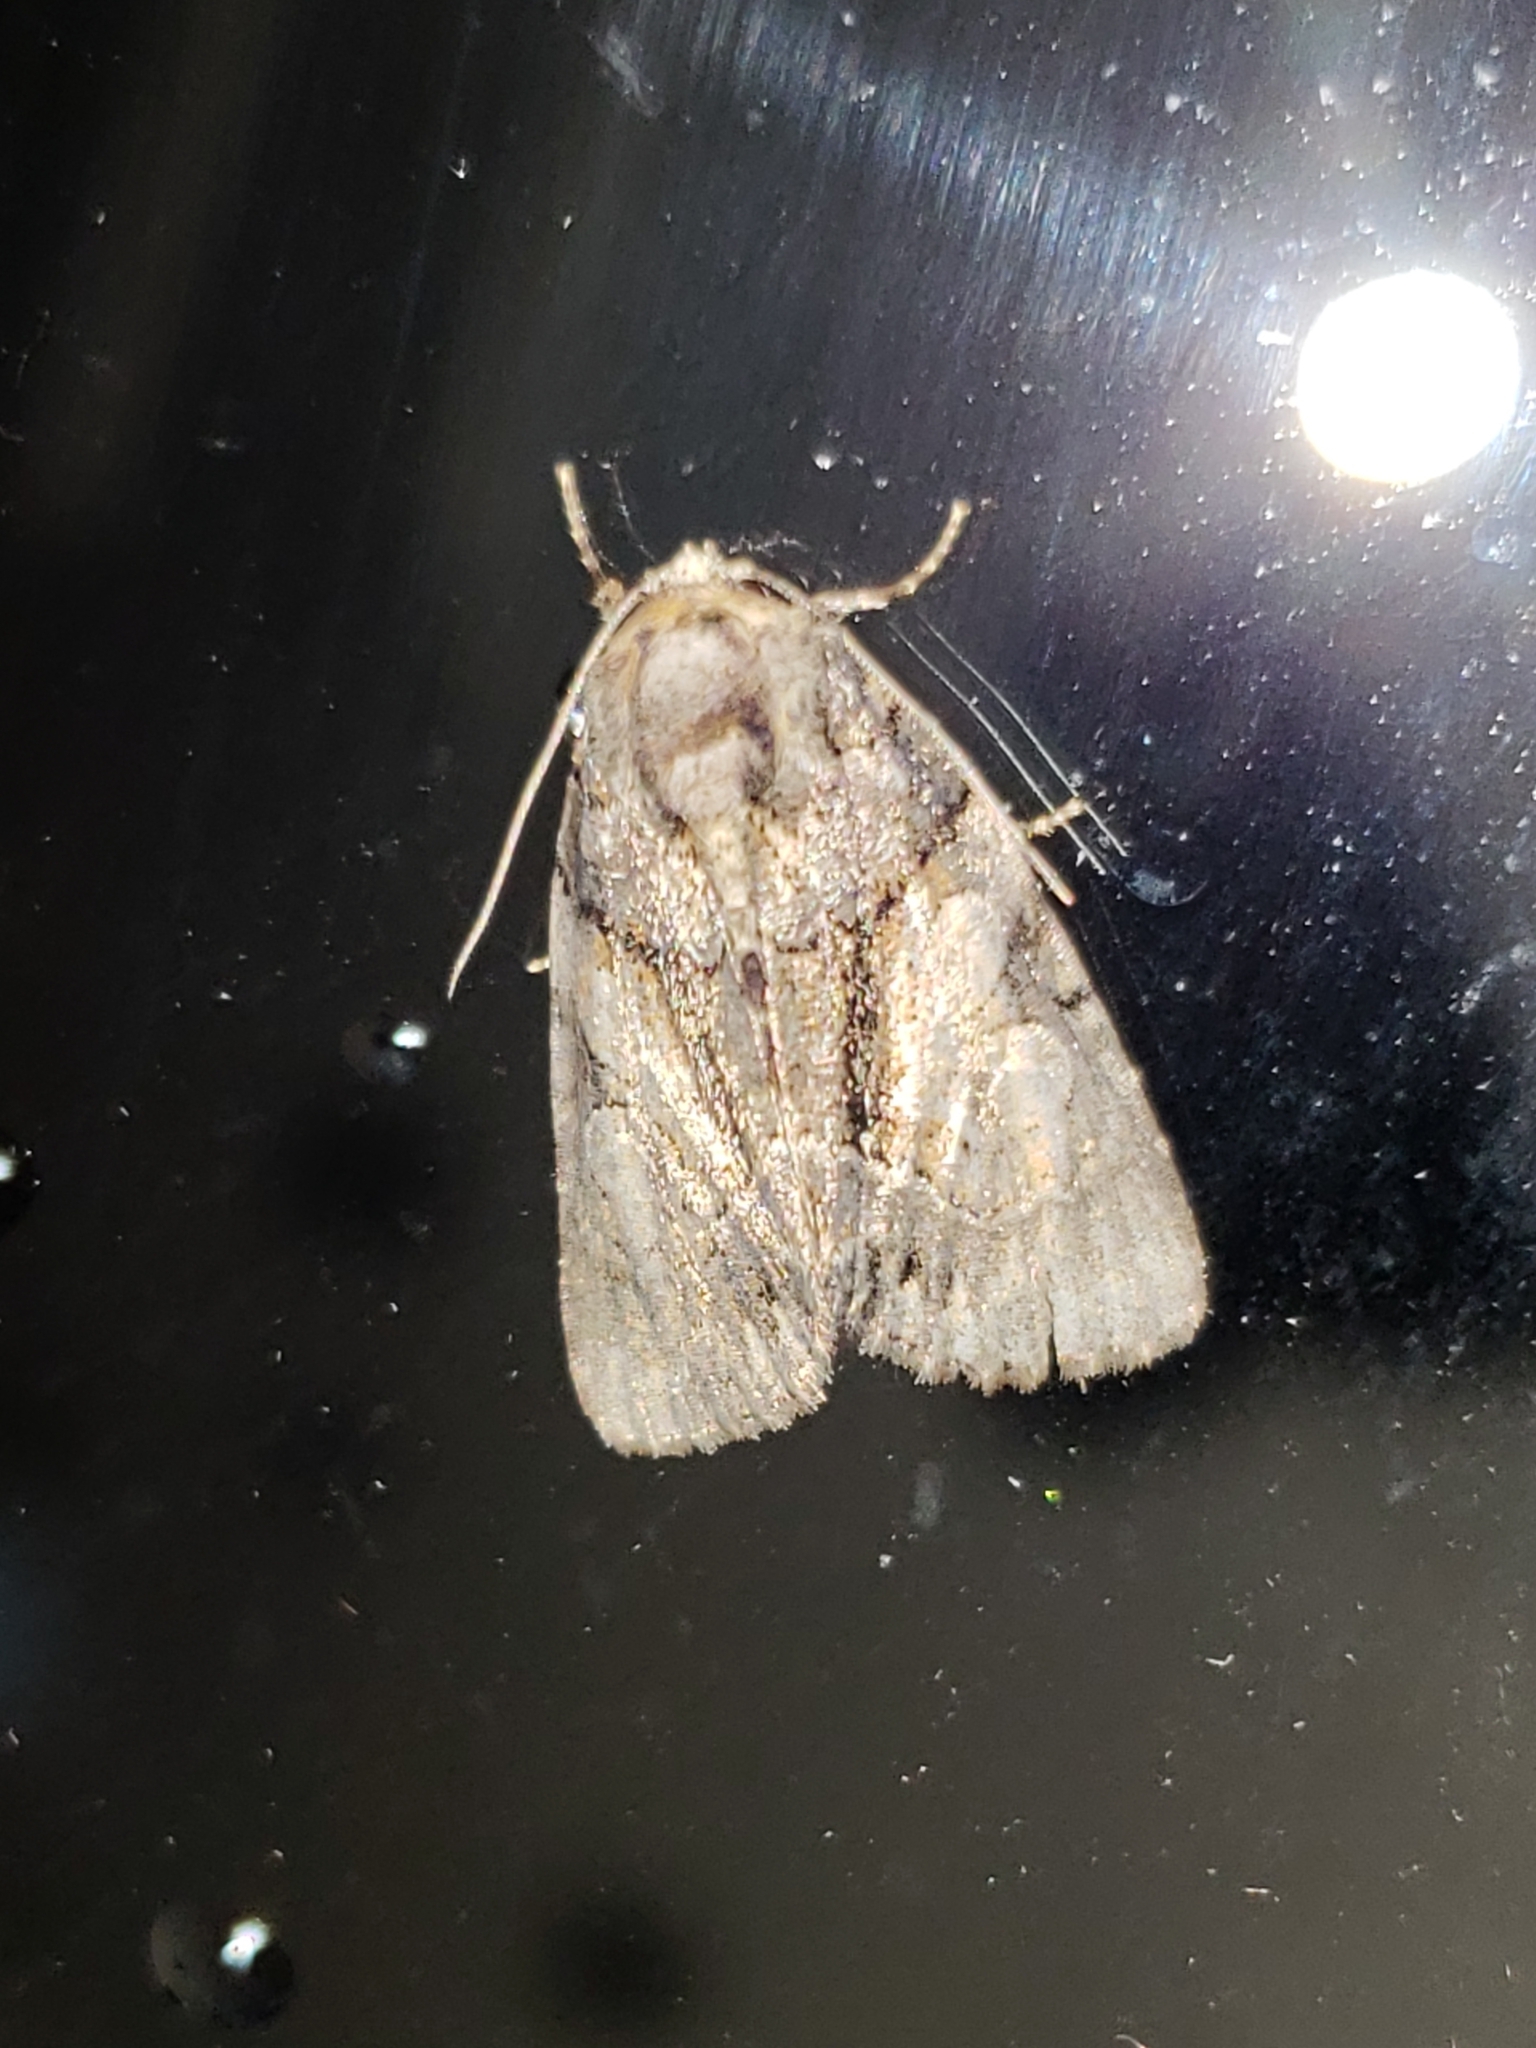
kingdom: Animalia
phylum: Arthropoda
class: Insecta
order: Lepidoptera
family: Noctuidae
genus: Chytonix
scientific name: Chytonix palliatricula
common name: Cloaked marvel
